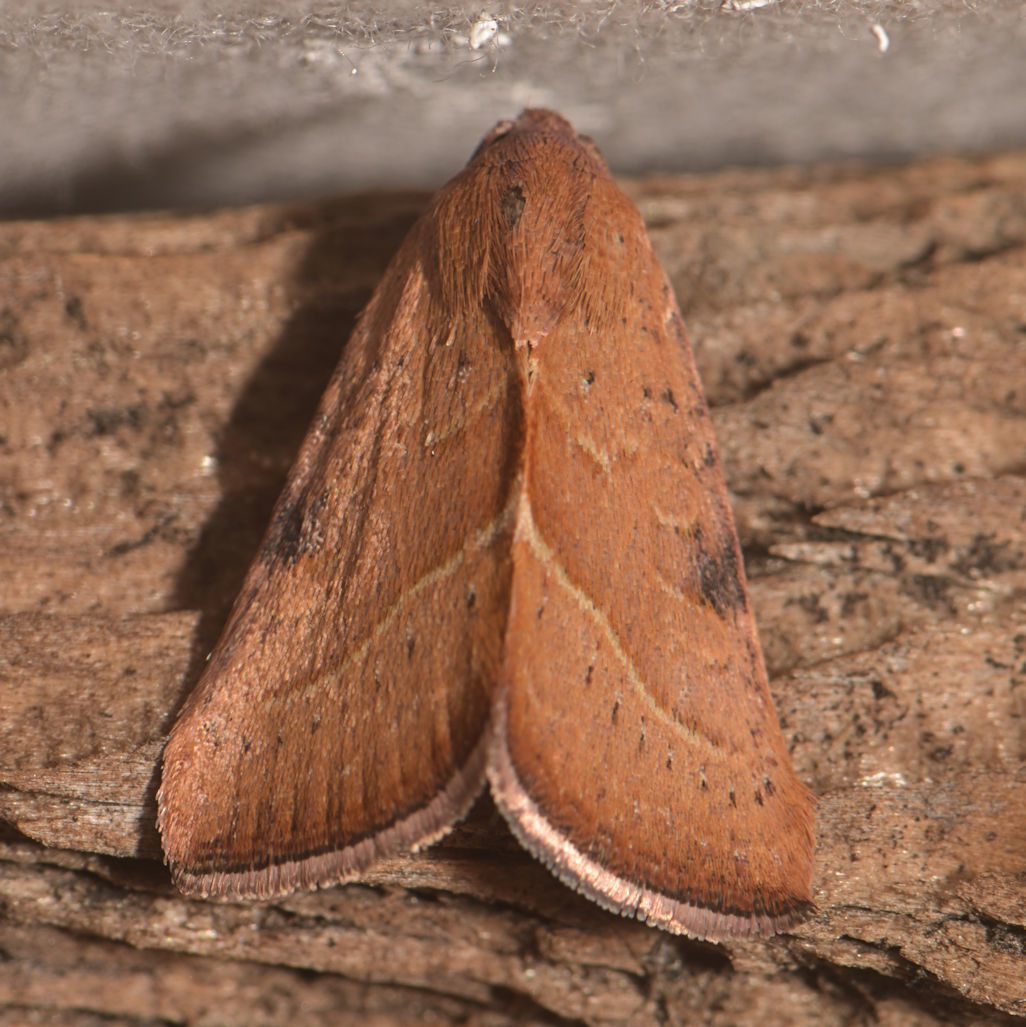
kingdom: Animalia
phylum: Arthropoda
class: Insecta
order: Lepidoptera
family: Noctuidae
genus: Galgula
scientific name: Galgula partita
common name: Wedgeling
